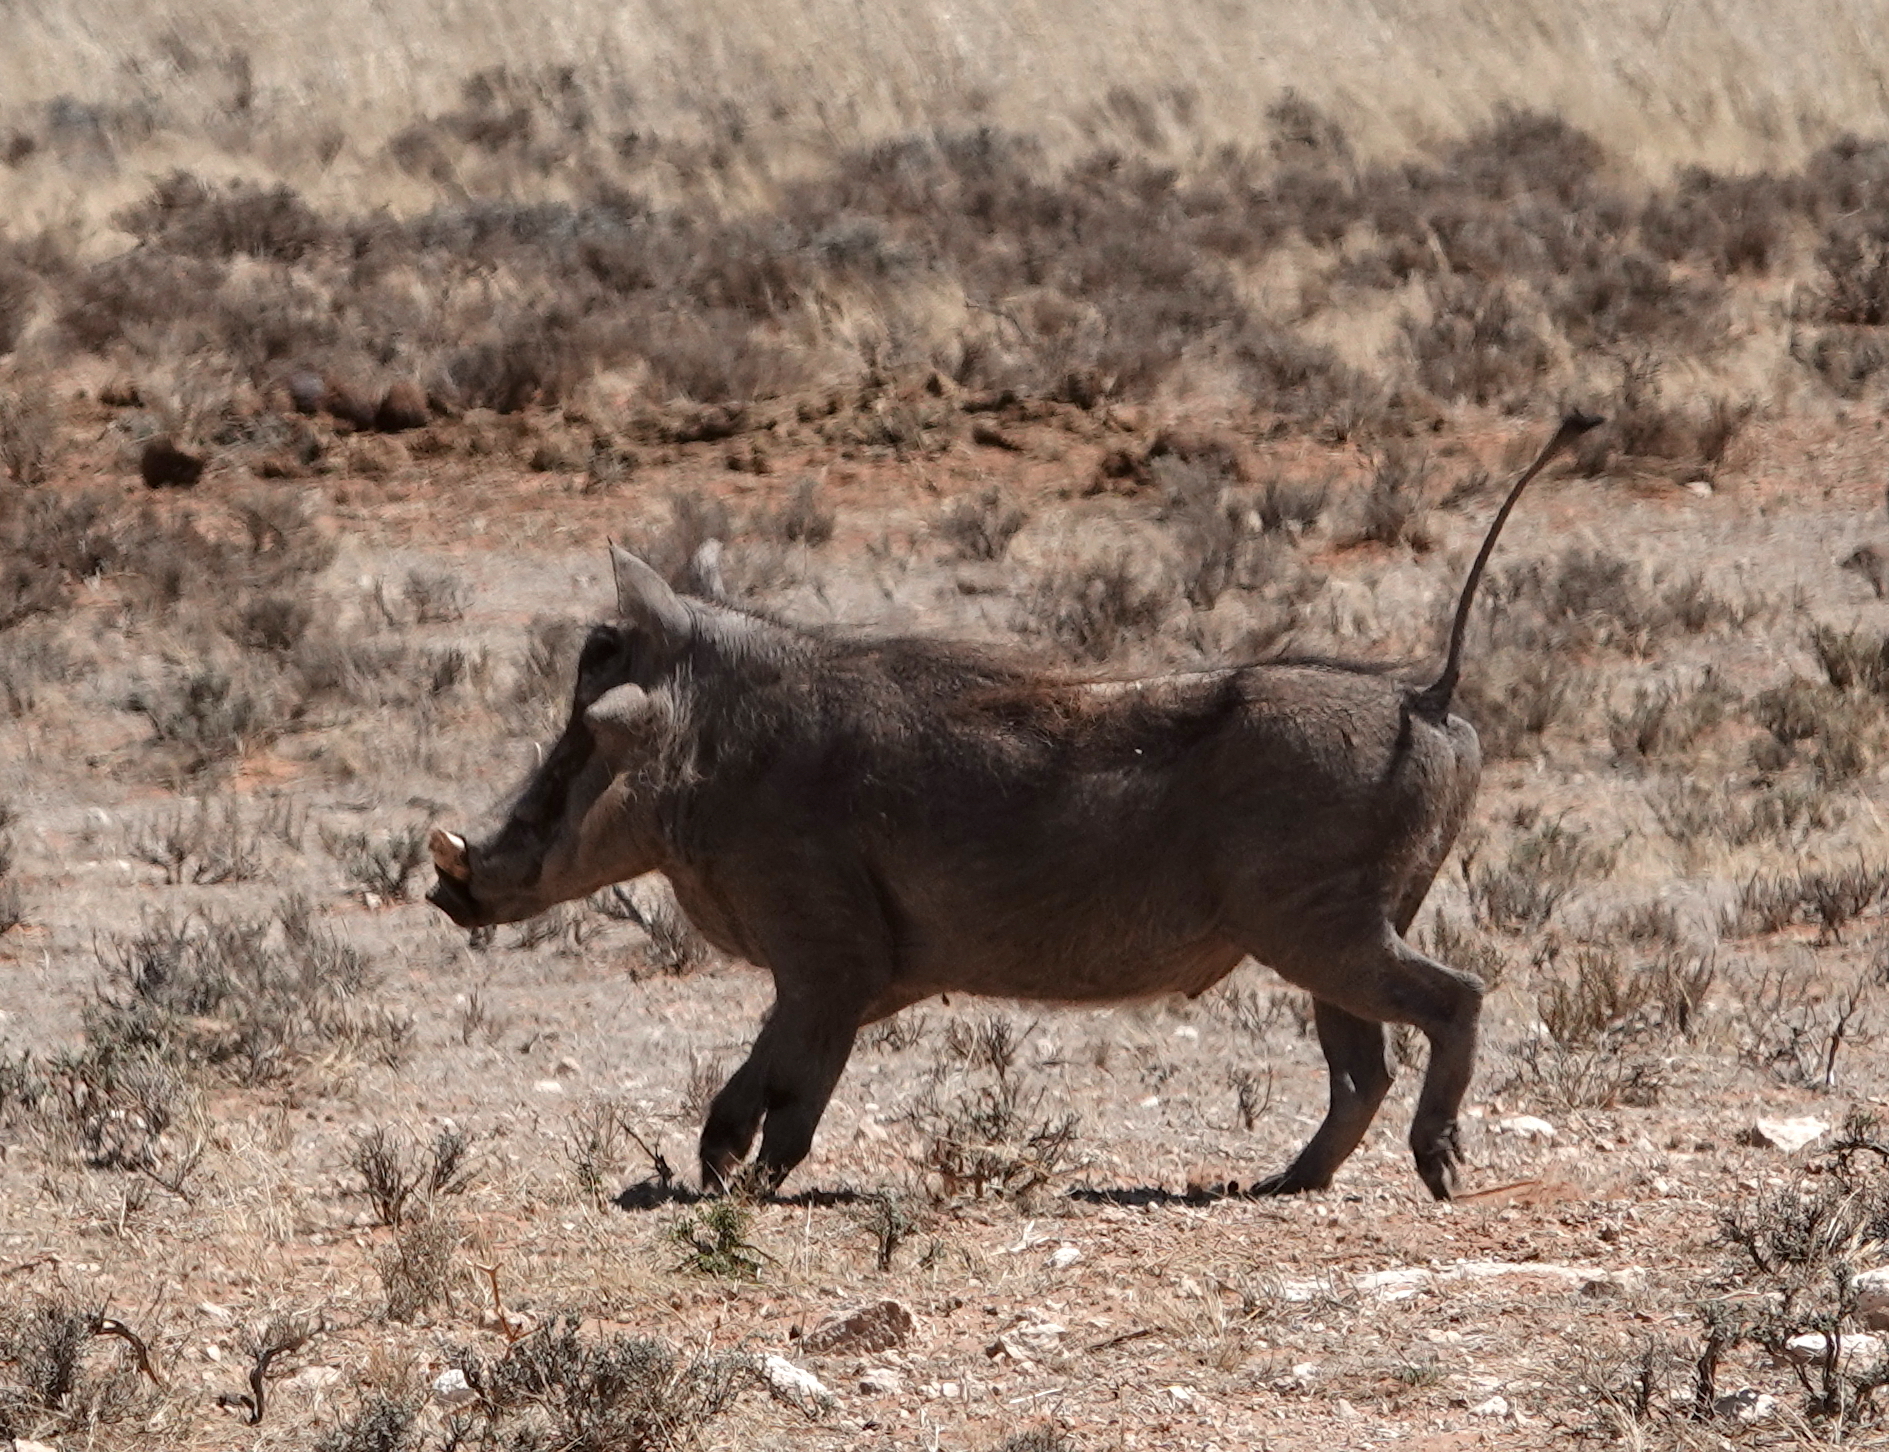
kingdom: Animalia
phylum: Chordata
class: Mammalia
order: Artiodactyla
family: Suidae
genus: Phacochoerus
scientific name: Phacochoerus africanus
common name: Common warthog
